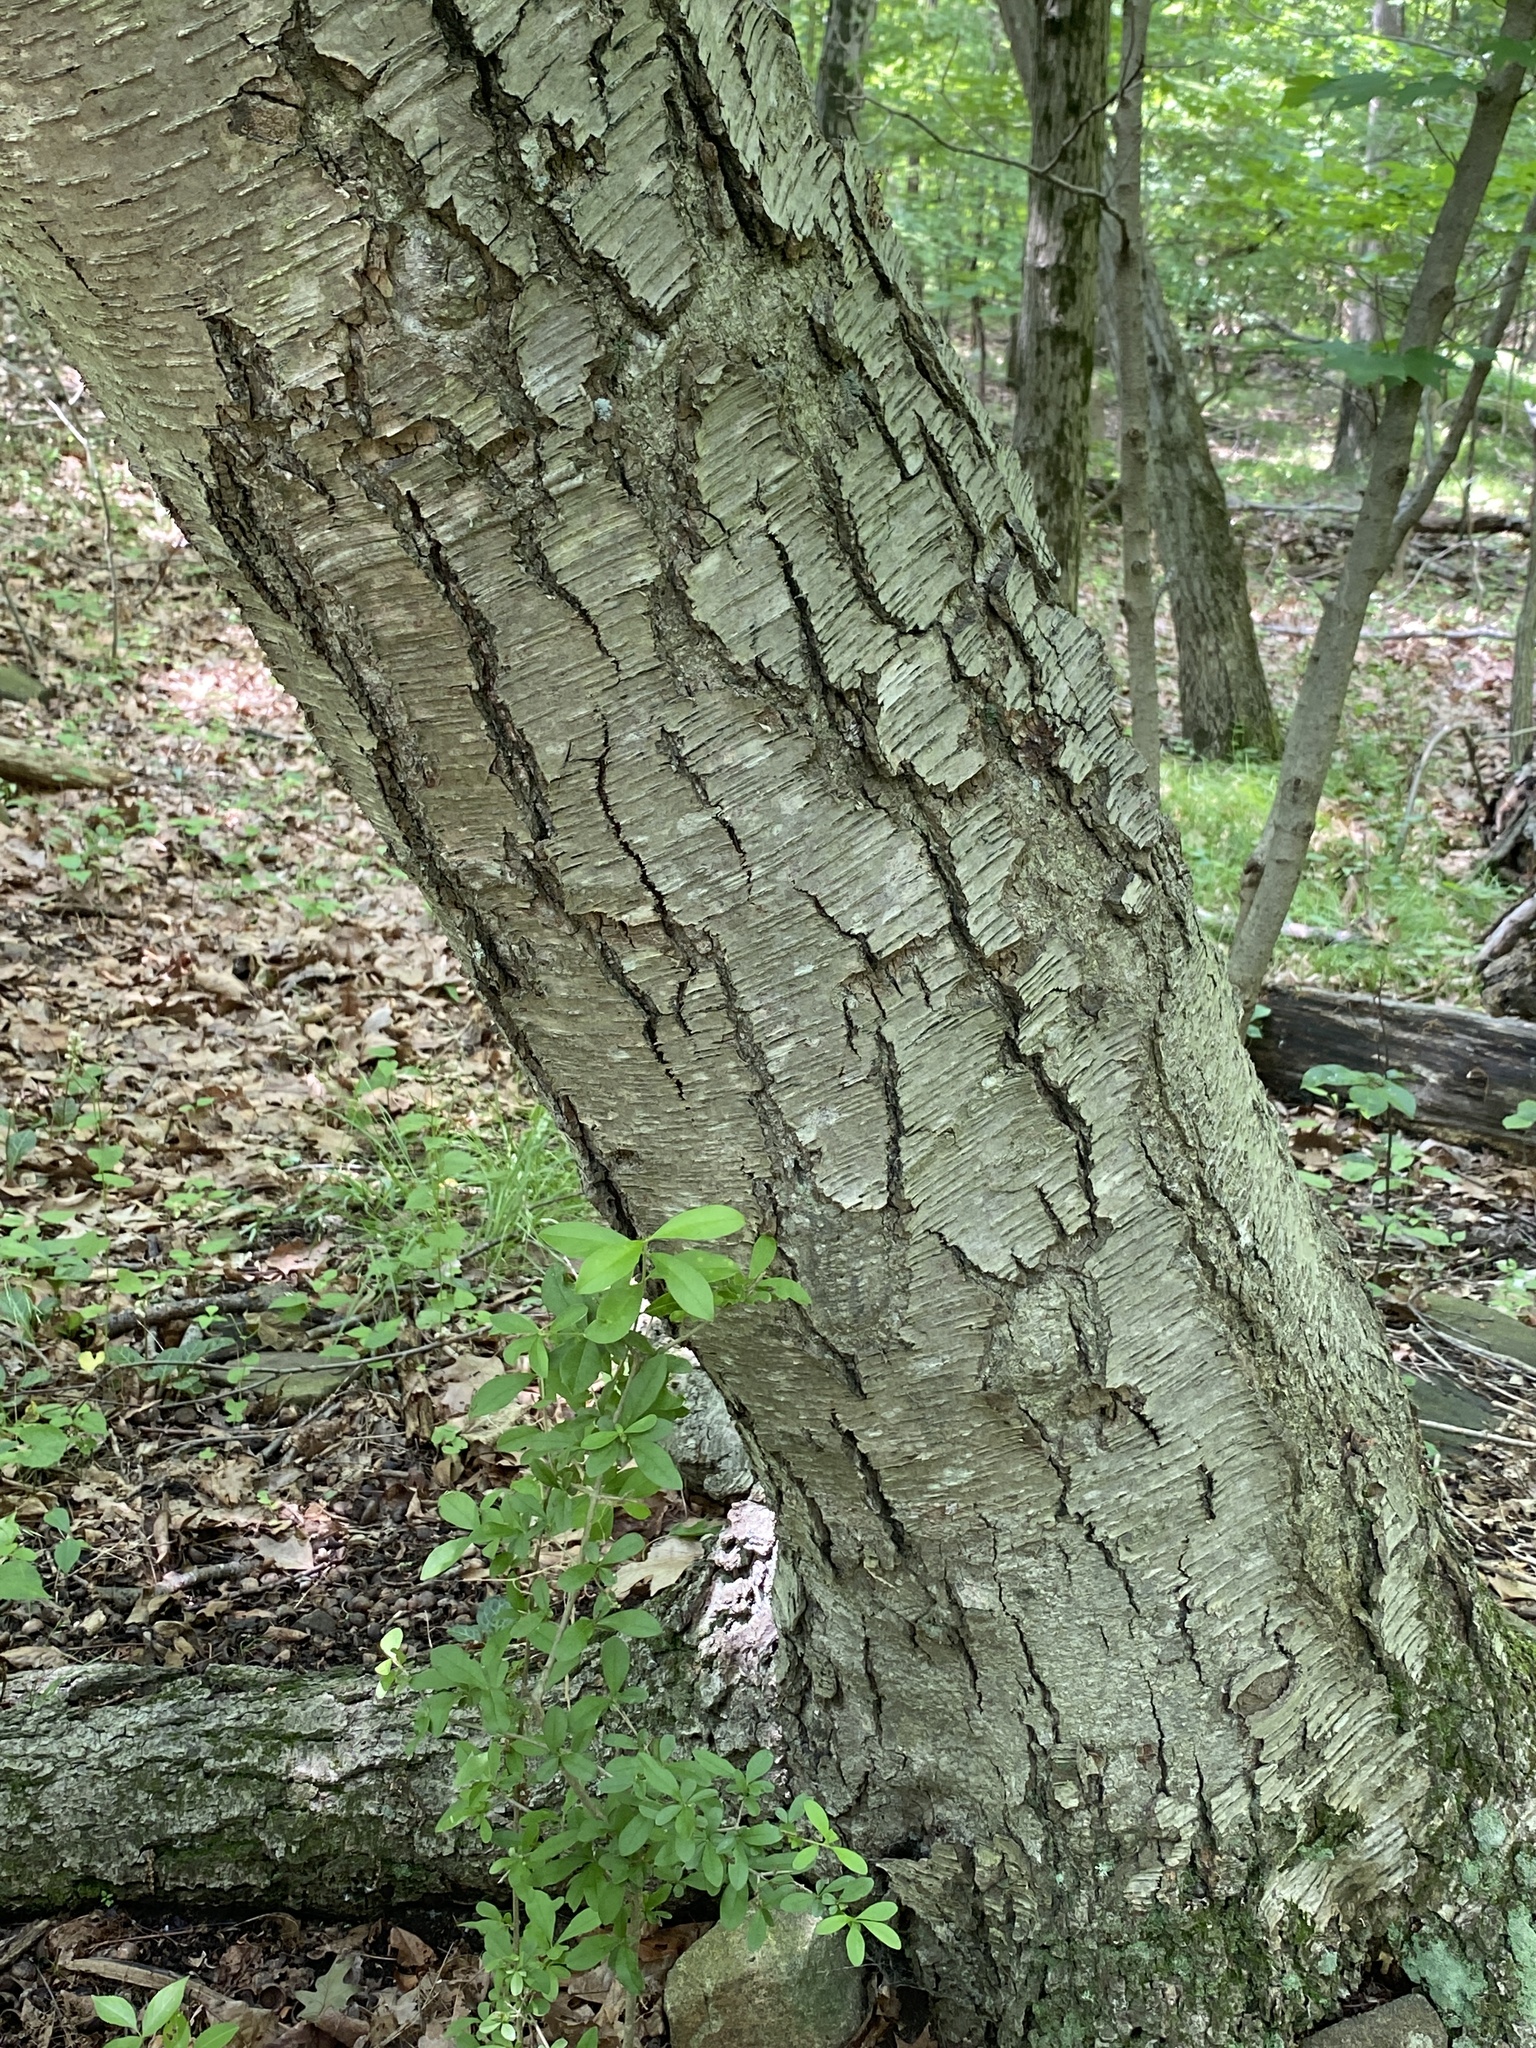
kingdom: Plantae
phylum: Tracheophyta
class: Magnoliopsida
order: Fagales
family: Betulaceae
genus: Betula
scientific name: Betula lenta
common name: Black birch
